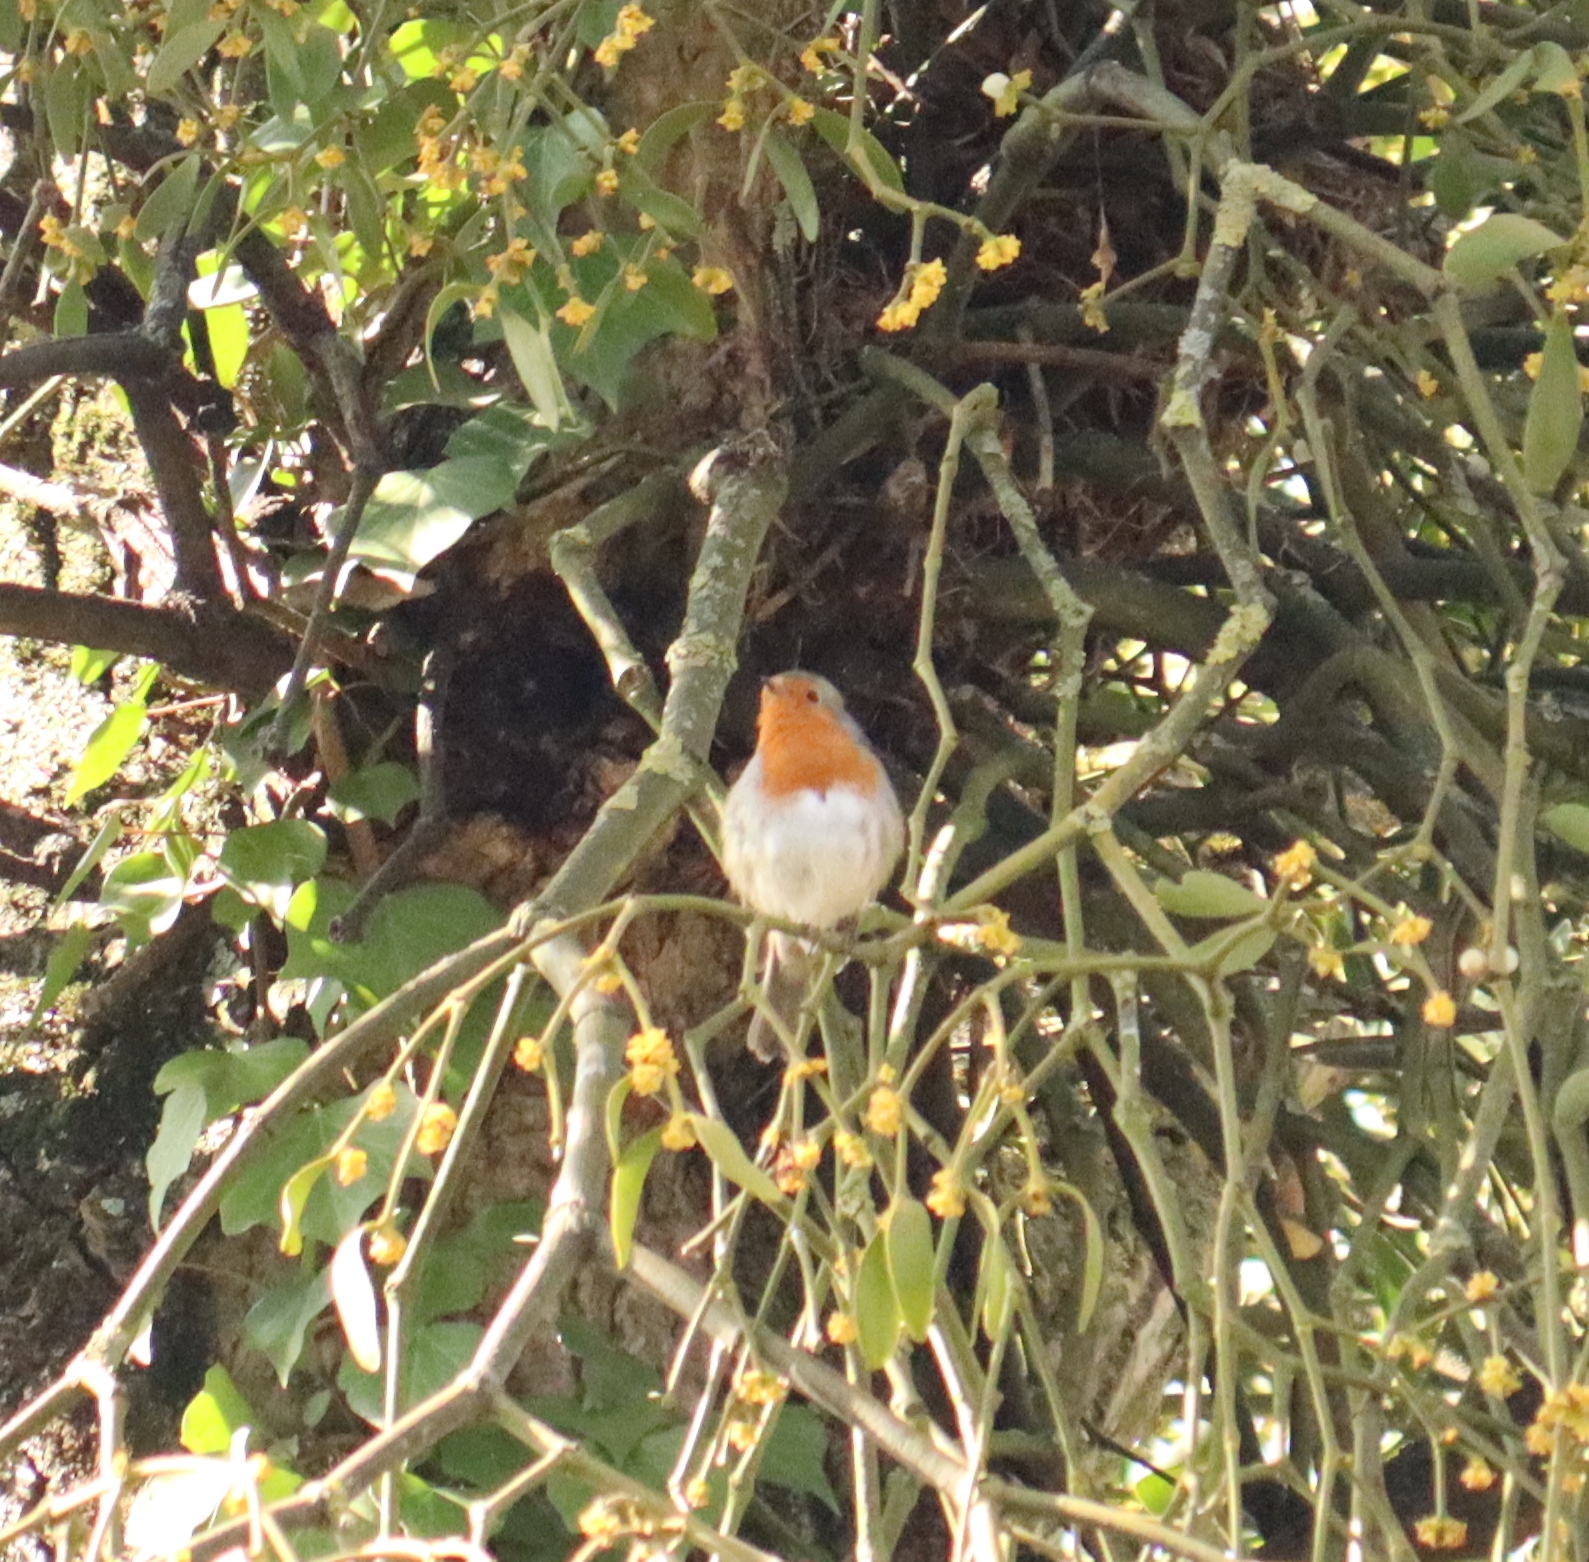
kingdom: Animalia
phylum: Chordata
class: Aves
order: Passeriformes
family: Muscicapidae
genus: Erithacus
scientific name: Erithacus rubecula
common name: European robin
